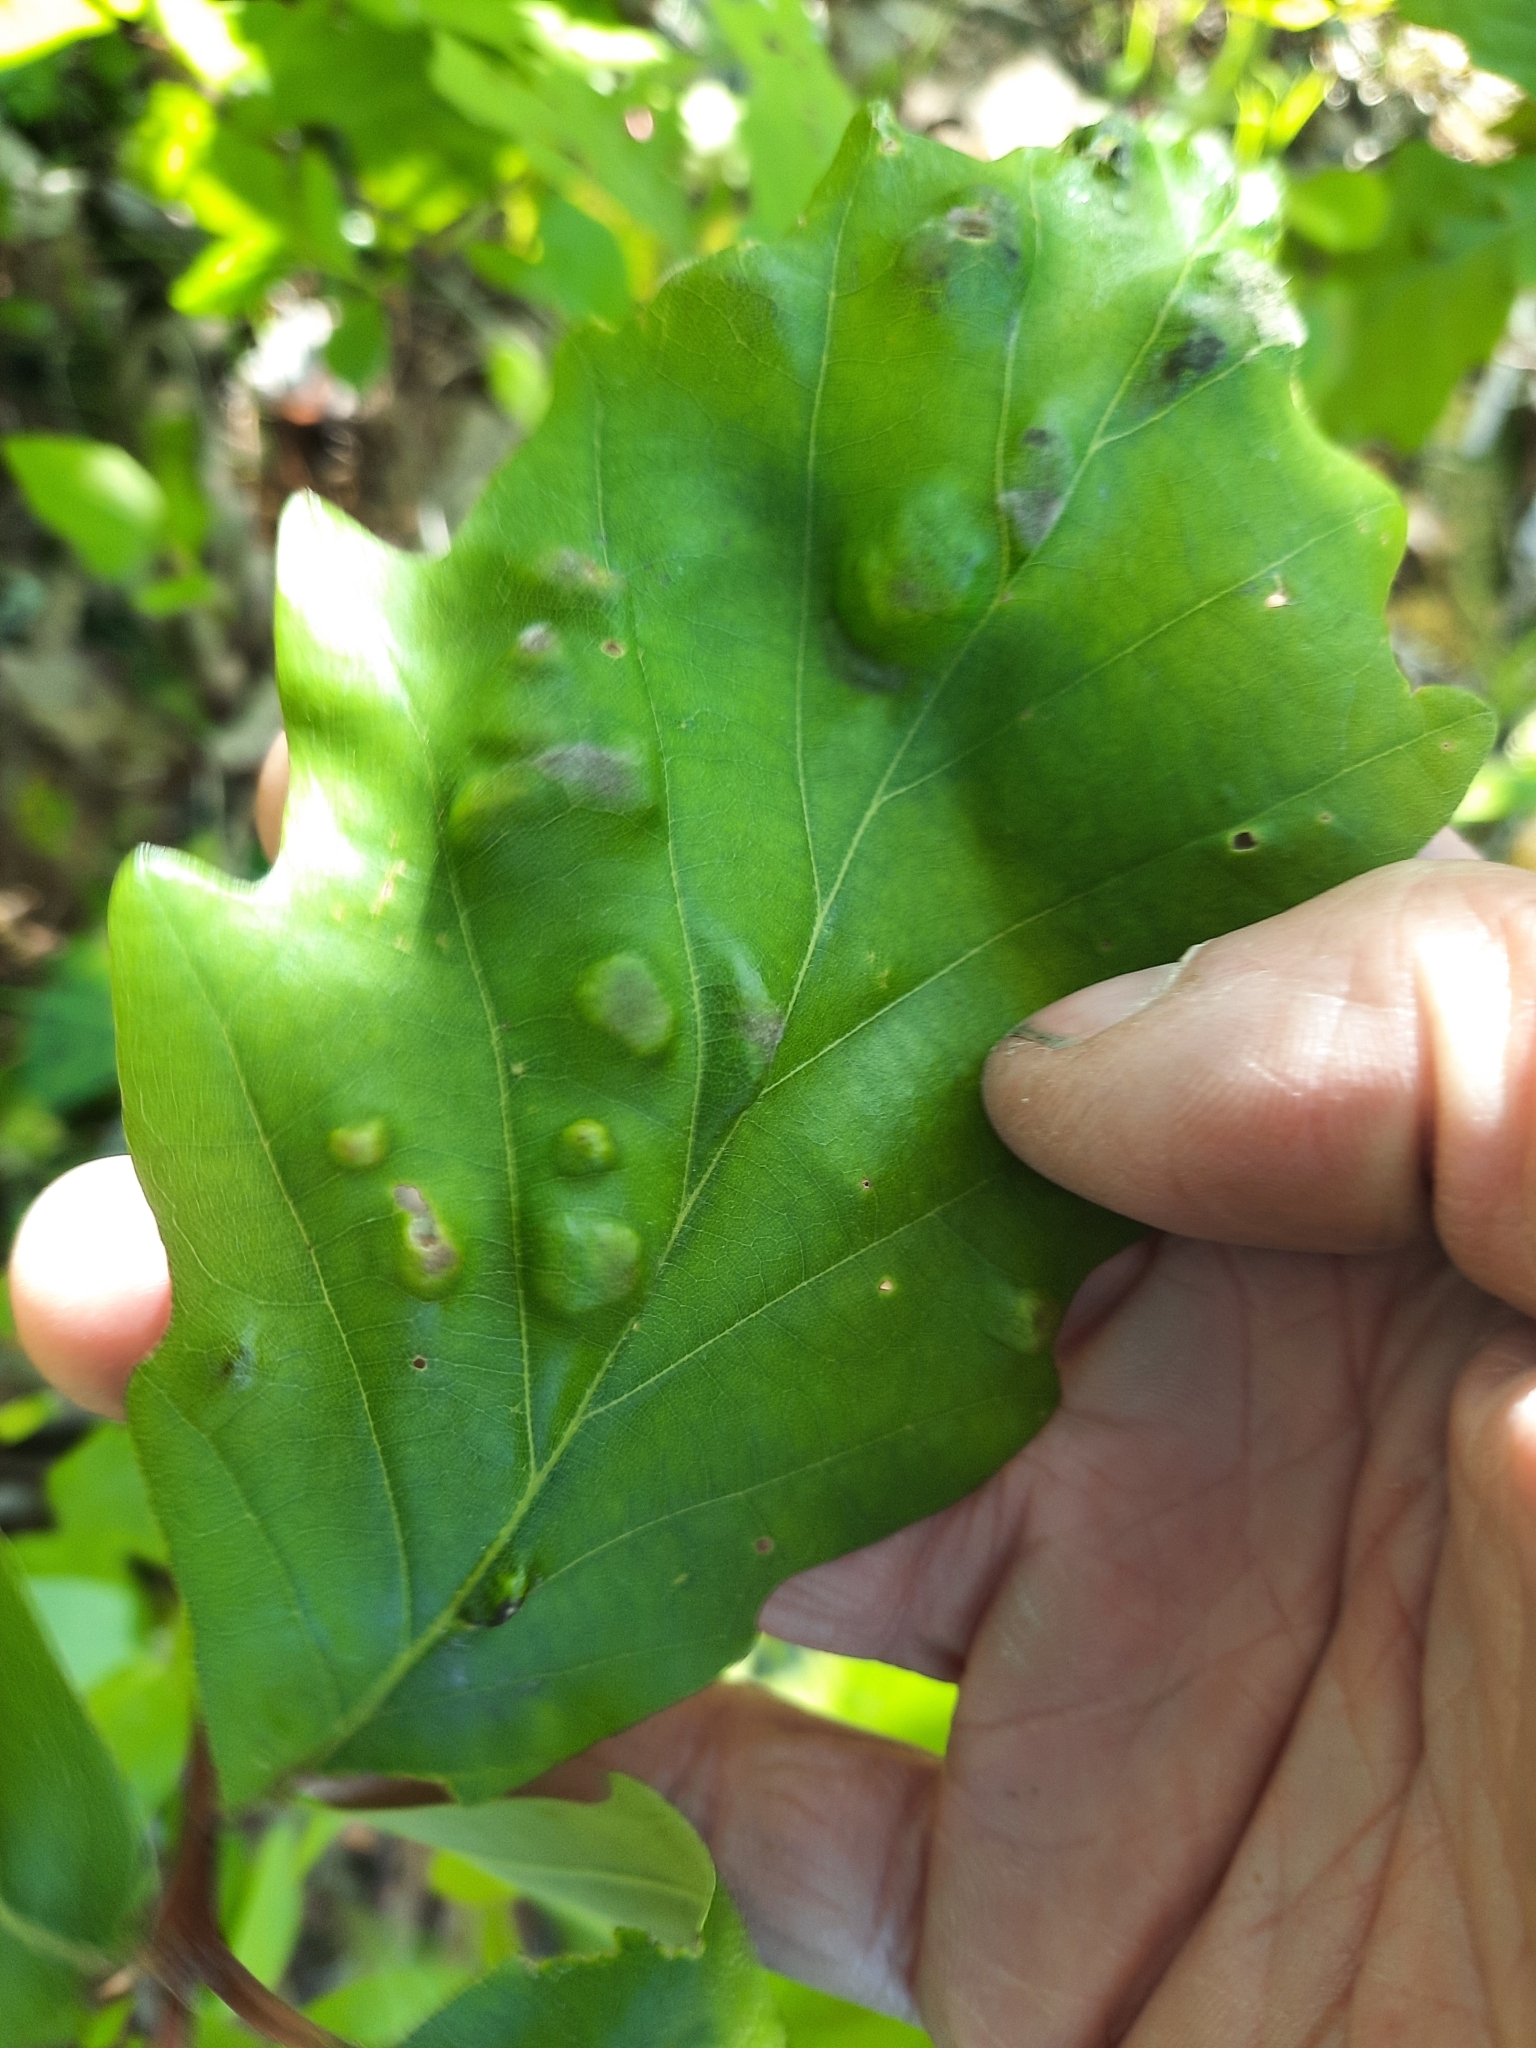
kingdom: Animalia
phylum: Arthropoda
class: Arachnida
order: Trombidiformes
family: Eriophyidae
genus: Aceria
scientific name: Aceria
